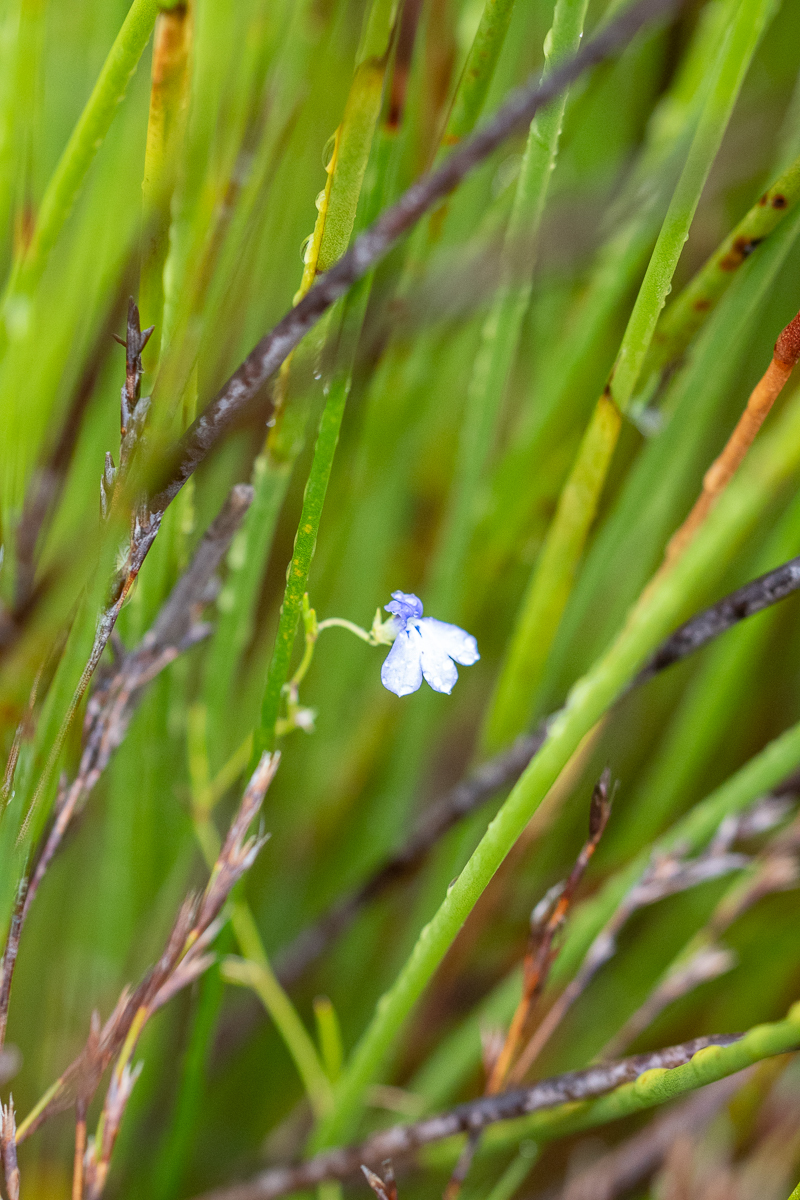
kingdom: Plantae
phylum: Tracheophyta
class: Magnoliopsida
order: Asterales
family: Campanulaceae
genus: Lobelia
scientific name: Lobelia setacea
